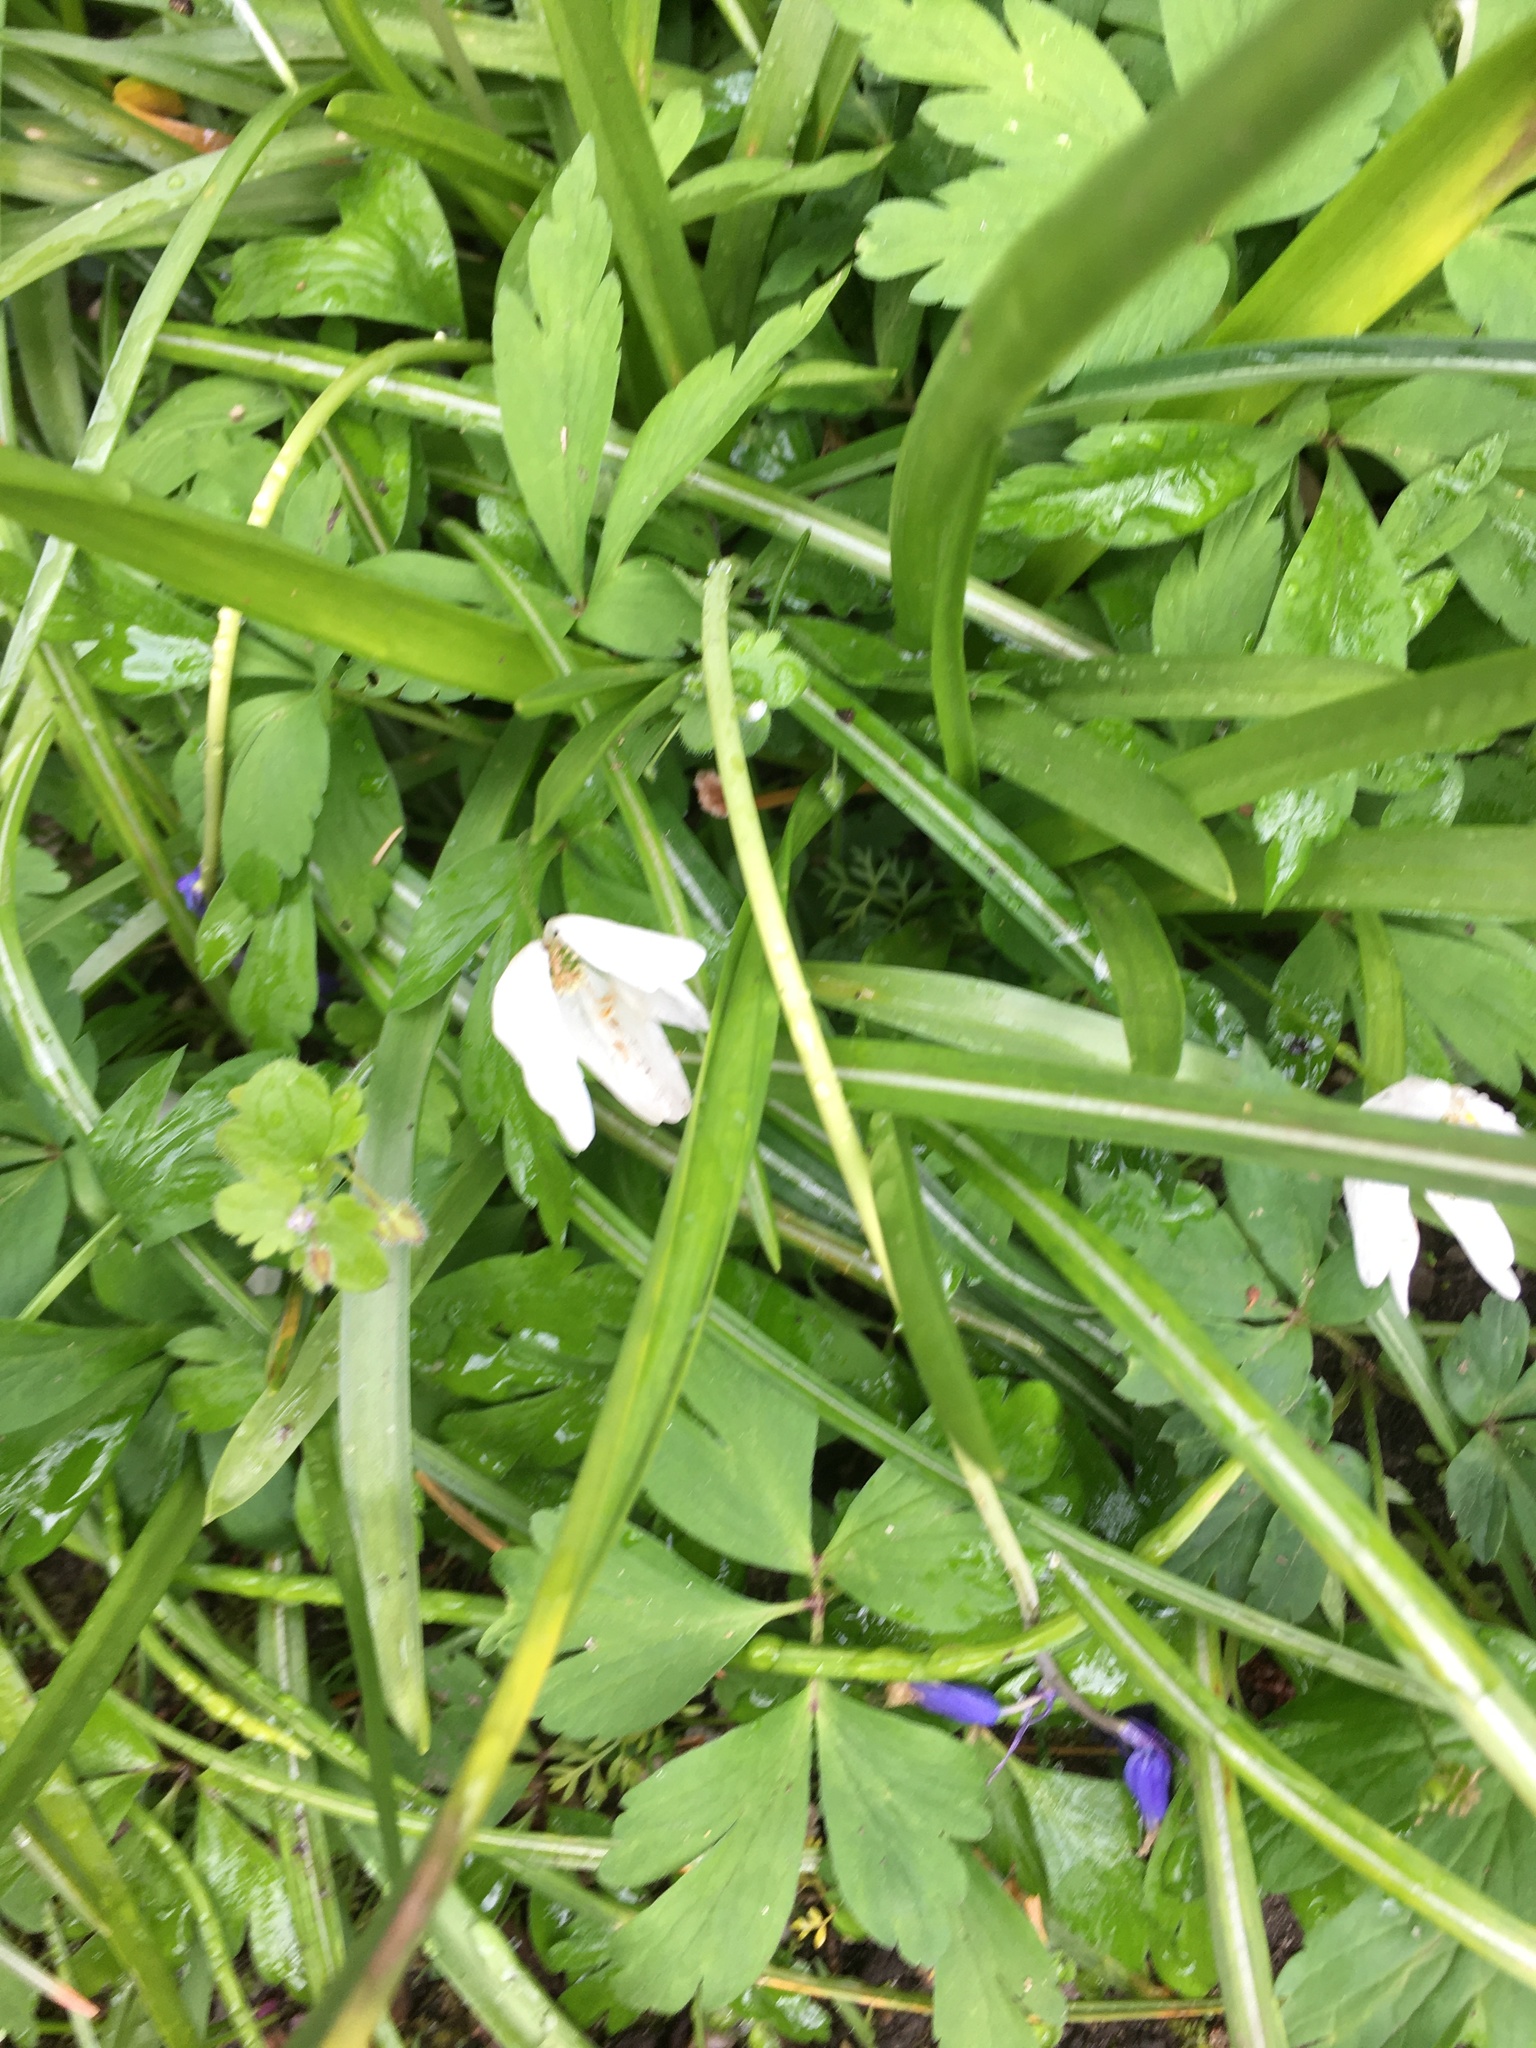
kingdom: Plantae
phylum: Tracheophyta
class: Magnoliopsida
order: Ranunculales
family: Ranunculaceae
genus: Anemone
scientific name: Anemone nemorosa
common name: Wood anemone
